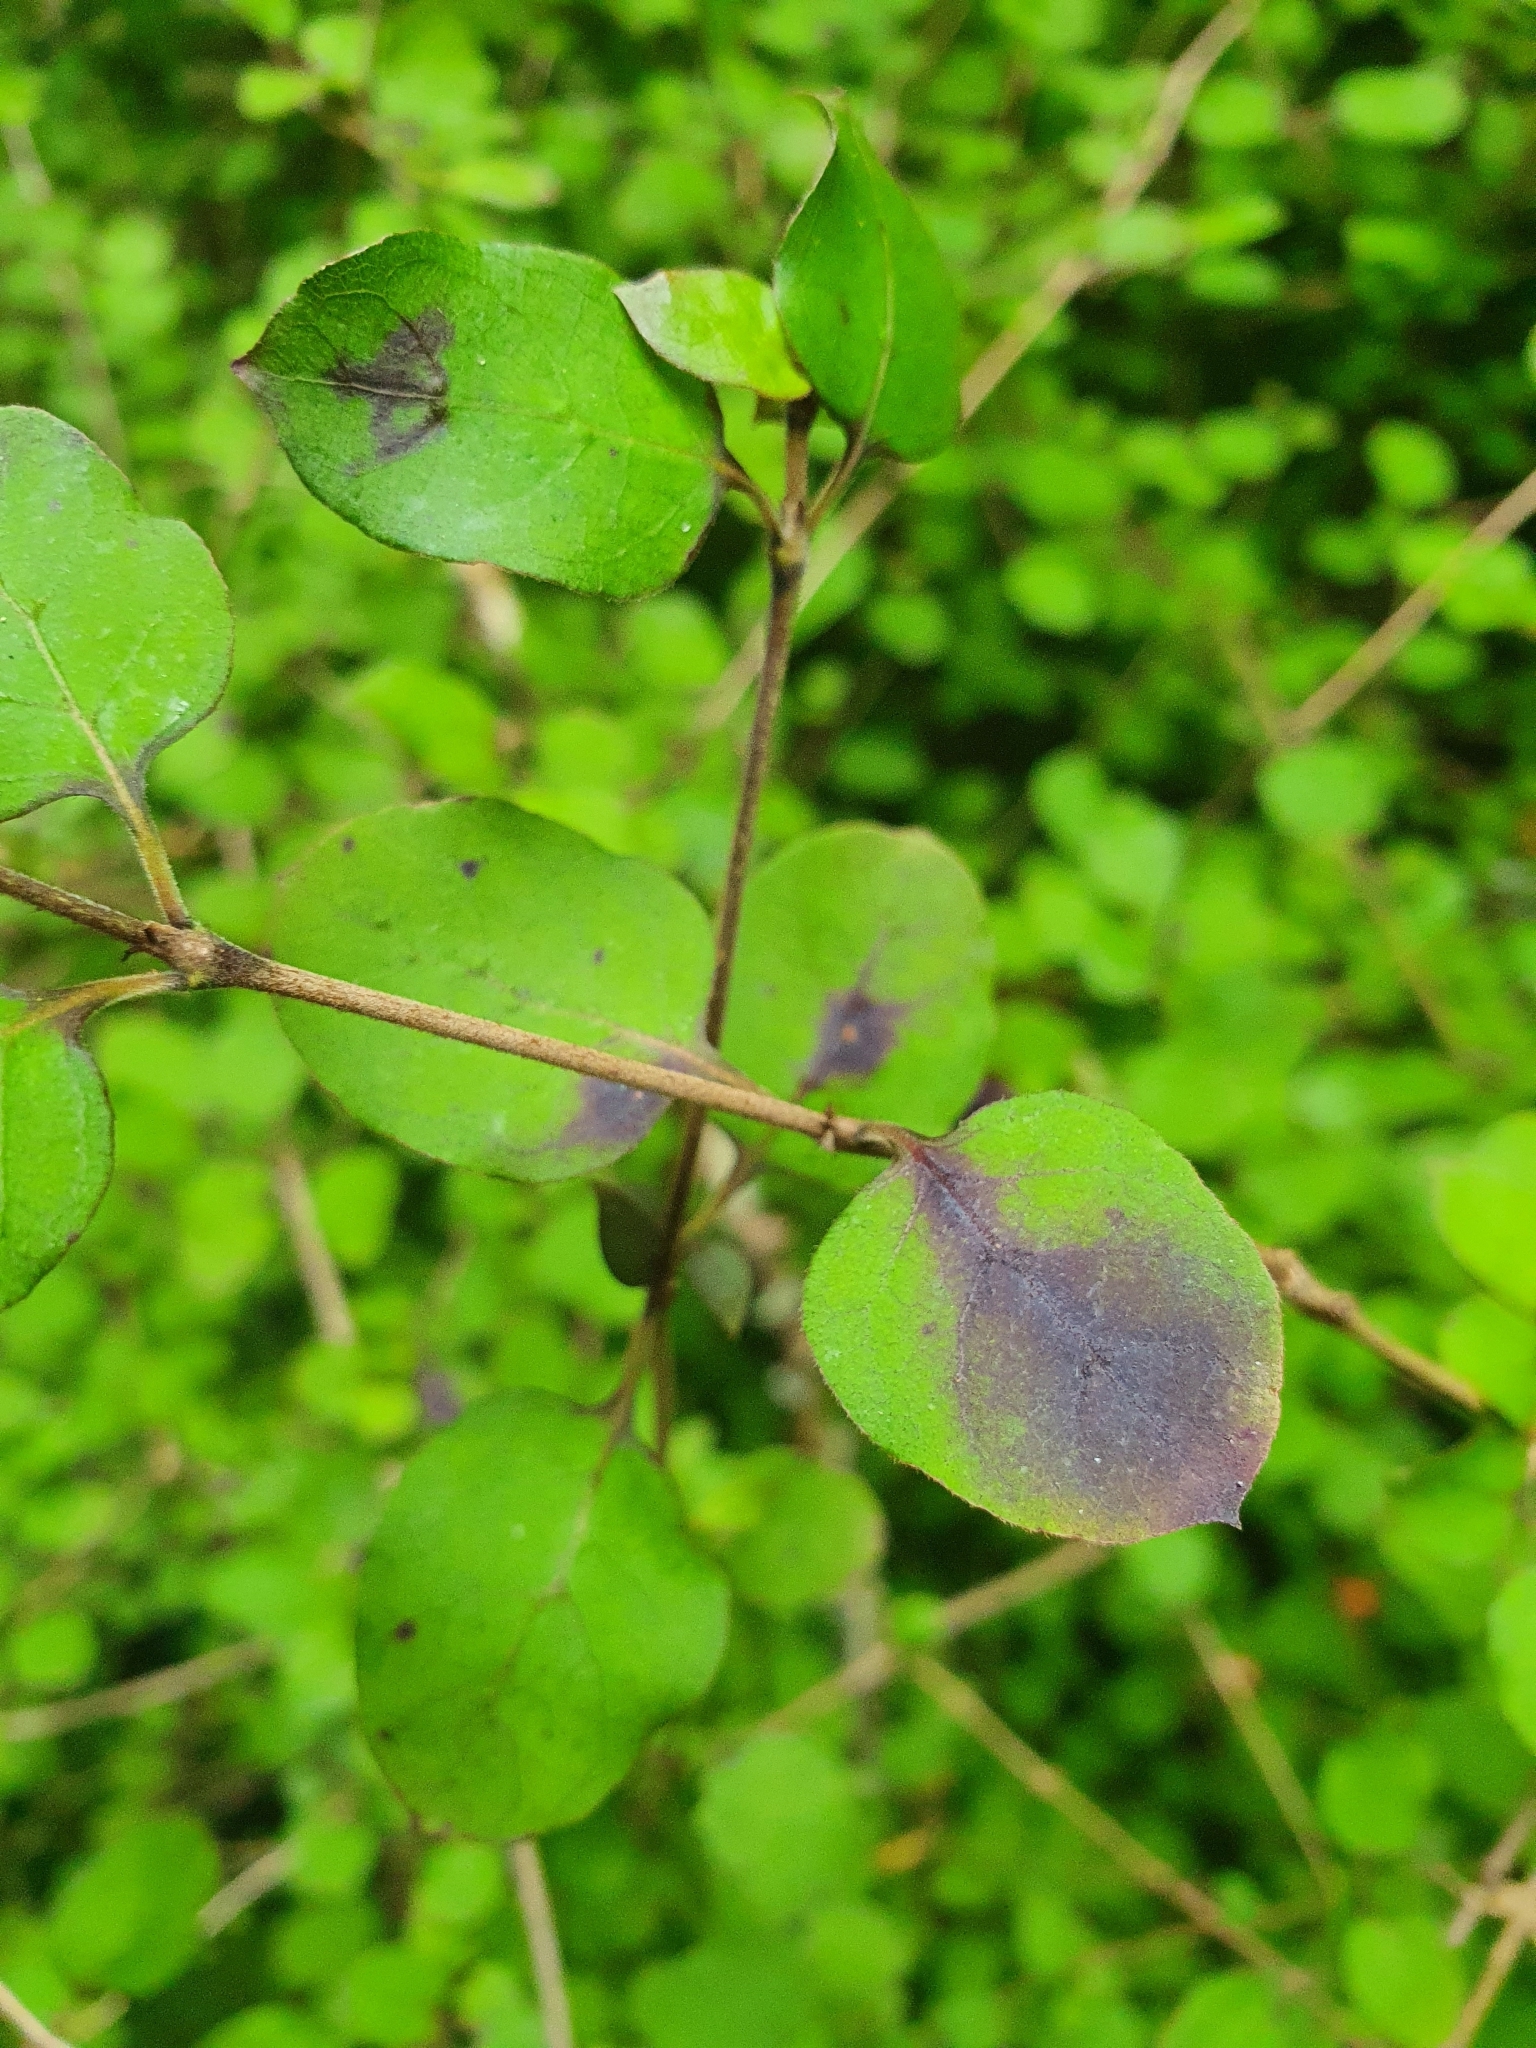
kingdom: Plantae
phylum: Tracheophyta
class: Magnoliopsida
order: Gentianales
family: Rubiaceae
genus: Coprosma
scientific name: Coprosma rotundifolia
